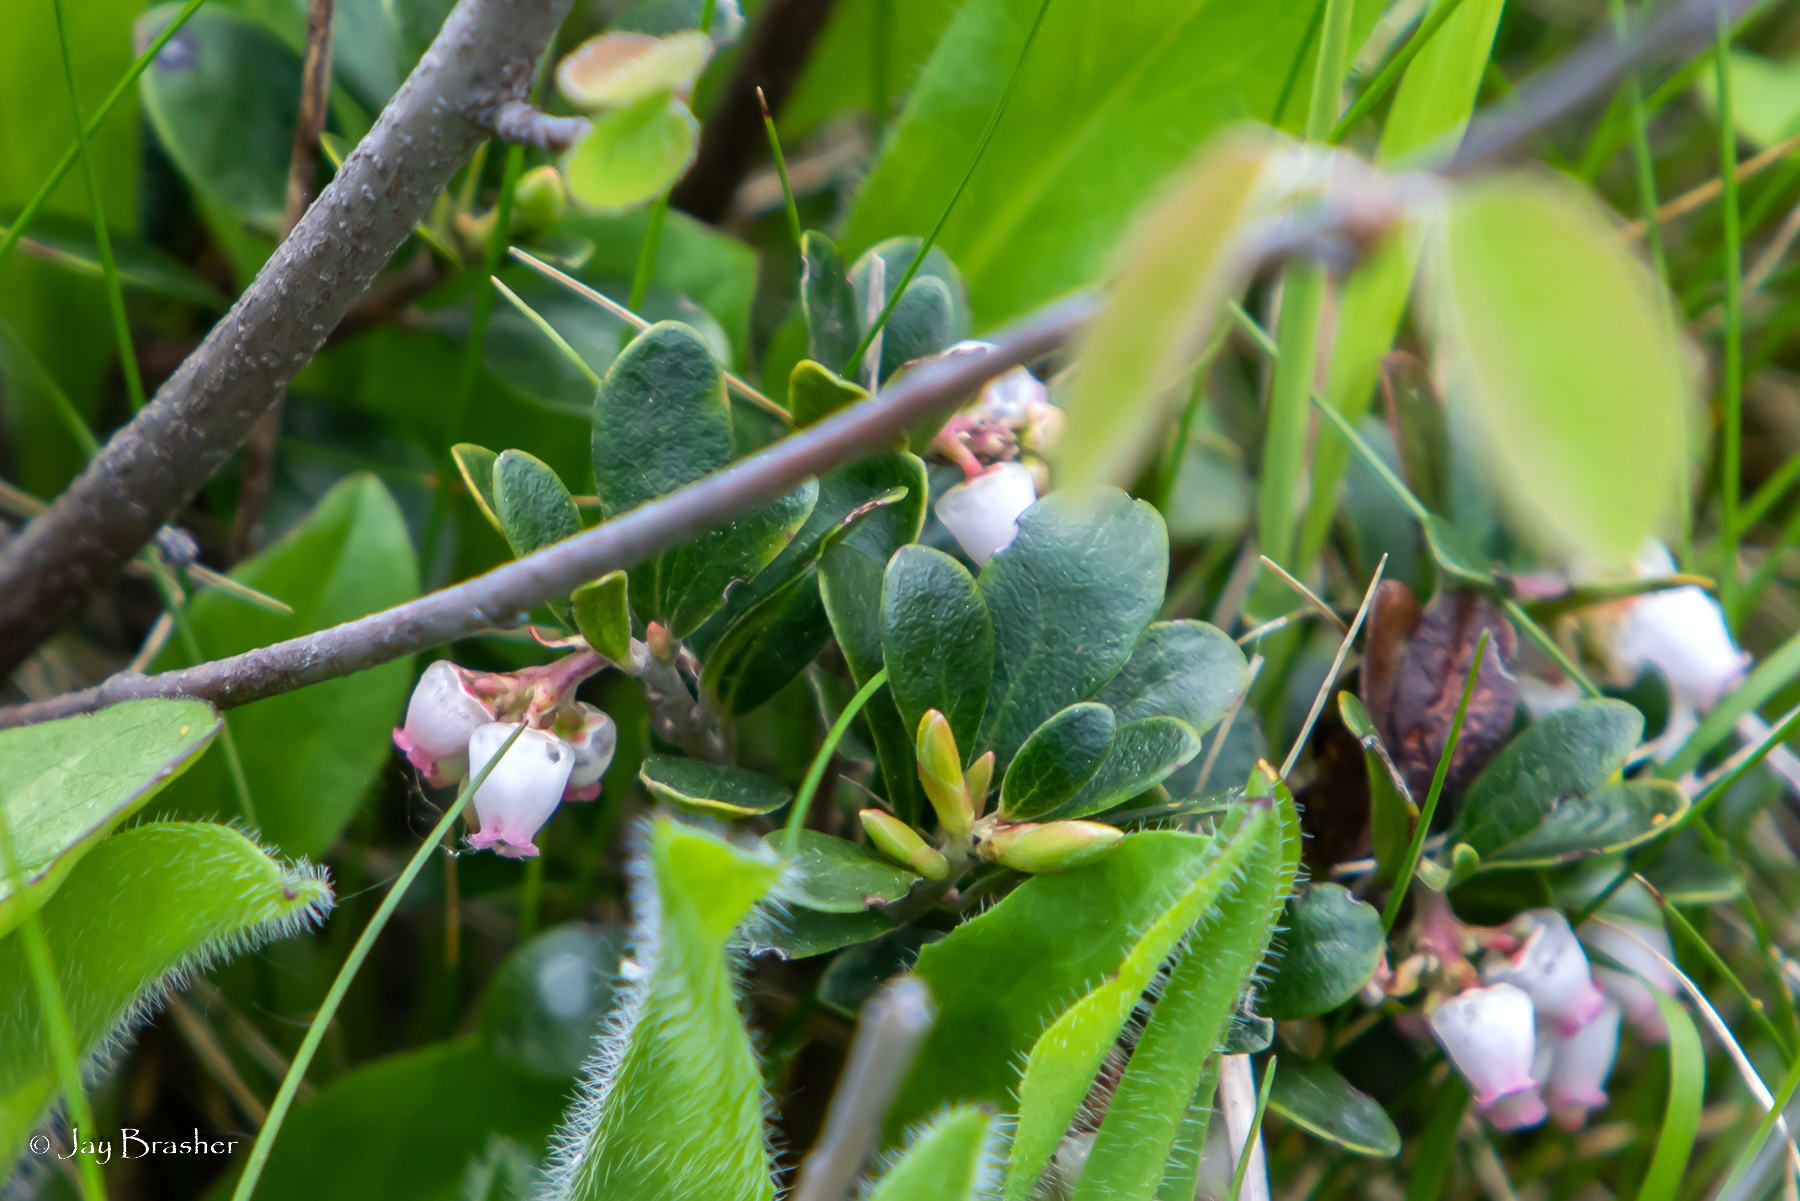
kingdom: Plantae
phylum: Tracheophyta
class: Magnoliopsida
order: Ericales
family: Ericaceae
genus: Arctostaphylos
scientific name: Arctostaphylos uva-ursi
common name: Bearberry
